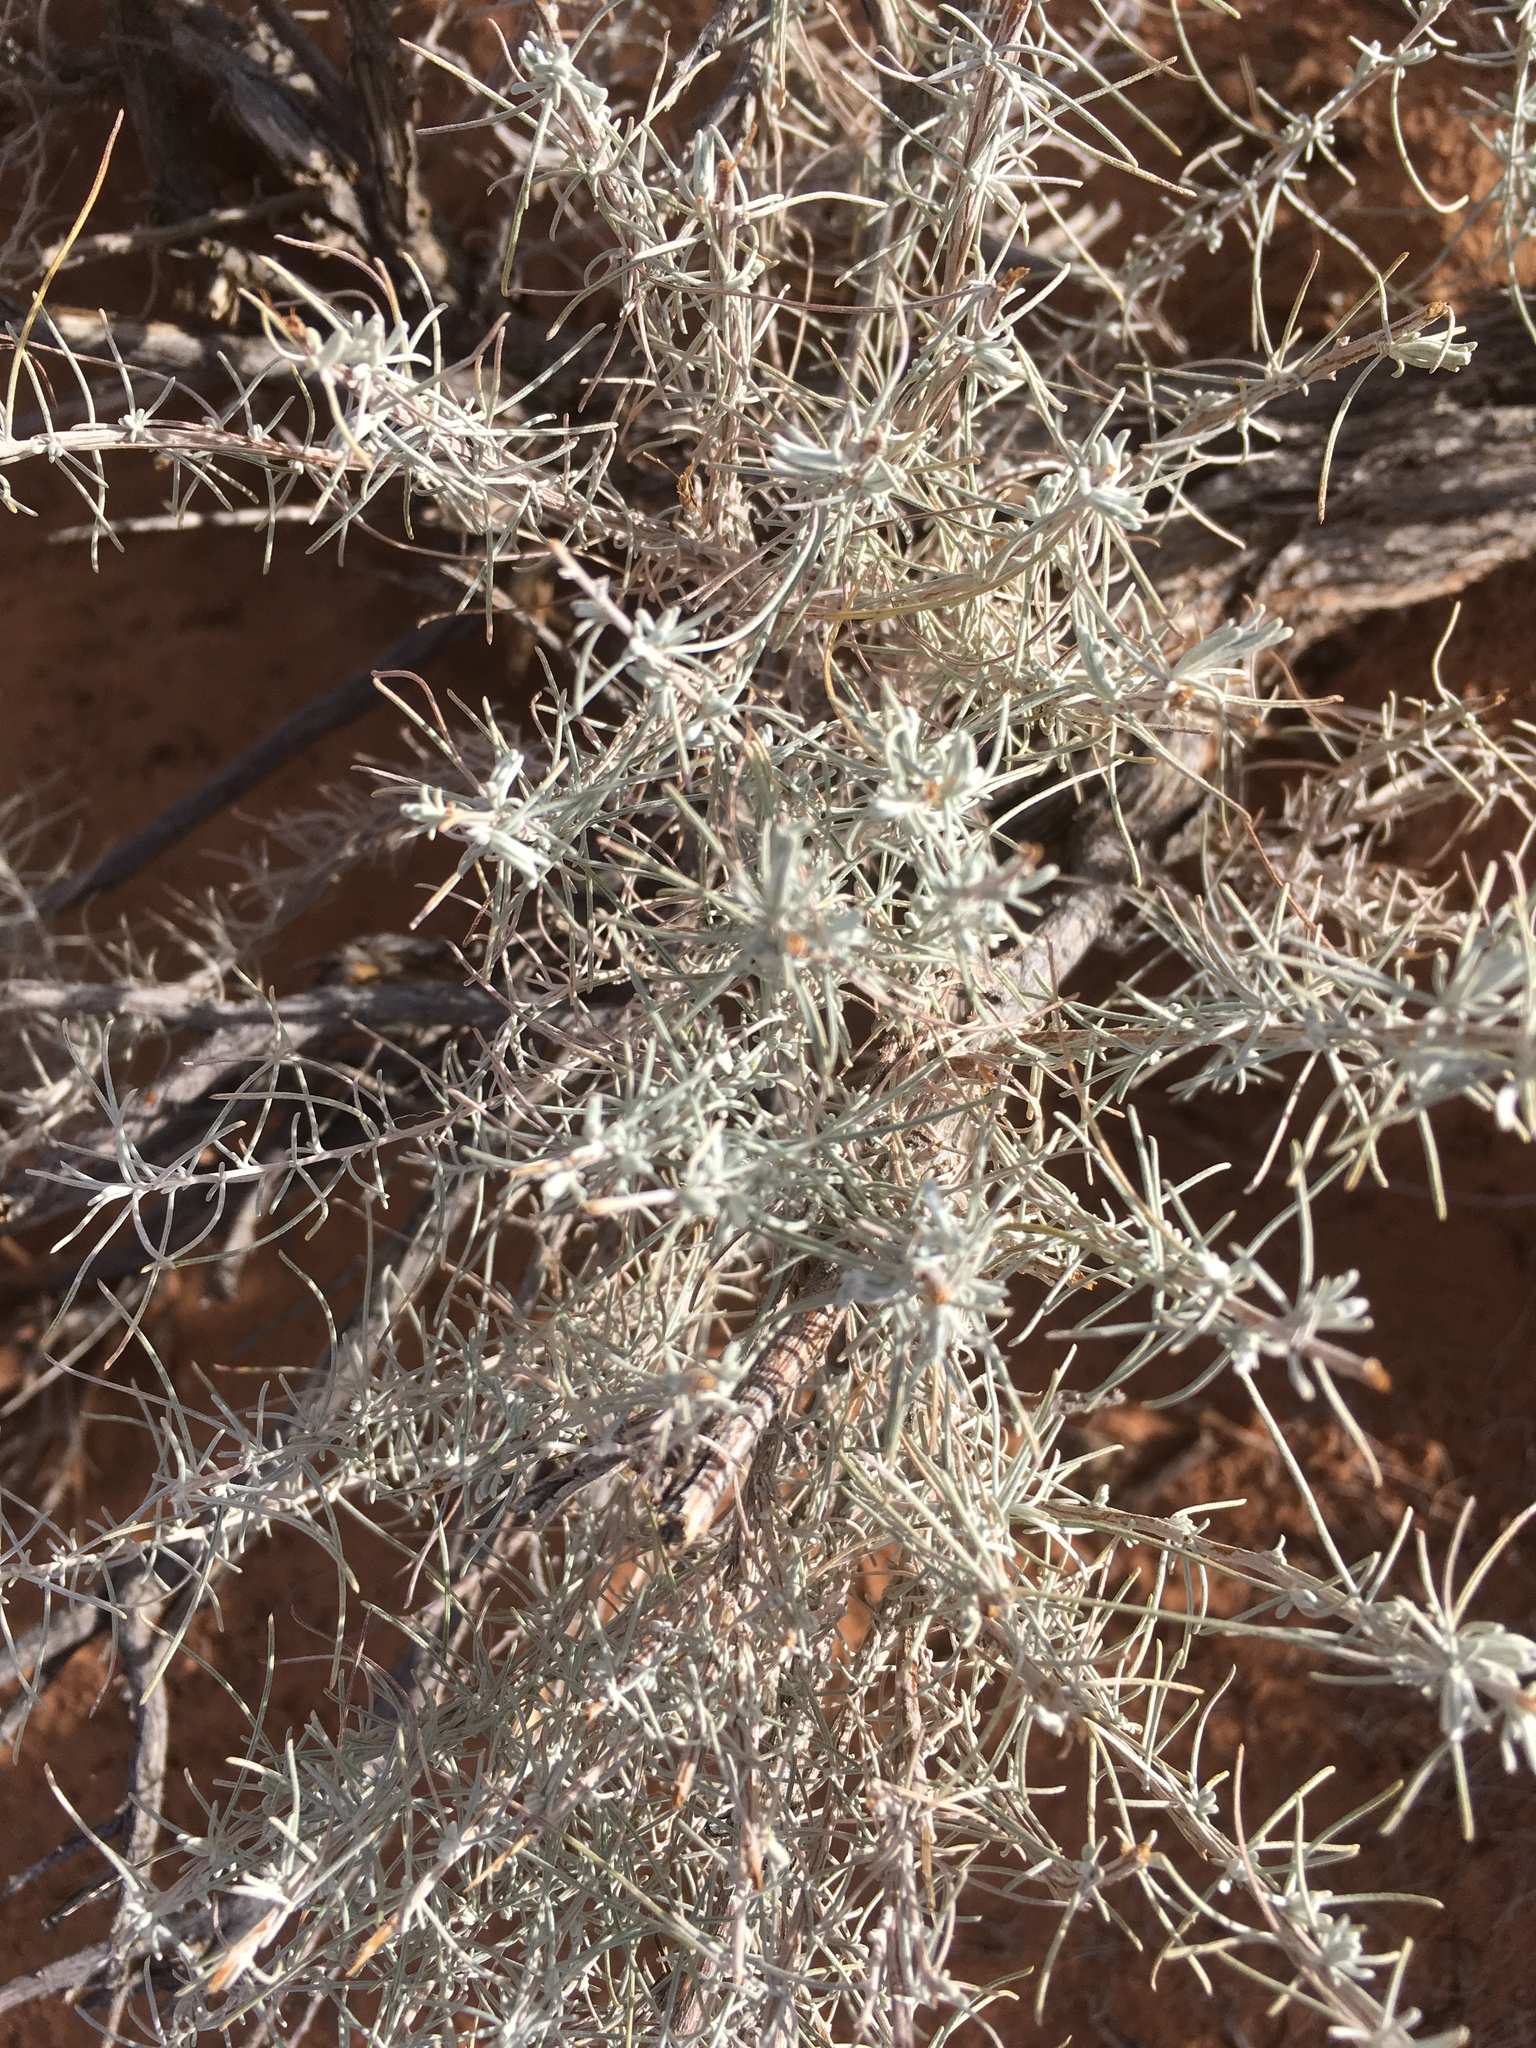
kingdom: Plantae
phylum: Tracheophyta
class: Magnoliopsida
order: Asterales
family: Asteraceae
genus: Artemisia
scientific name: Artemisia filifolia
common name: Sand-sage
